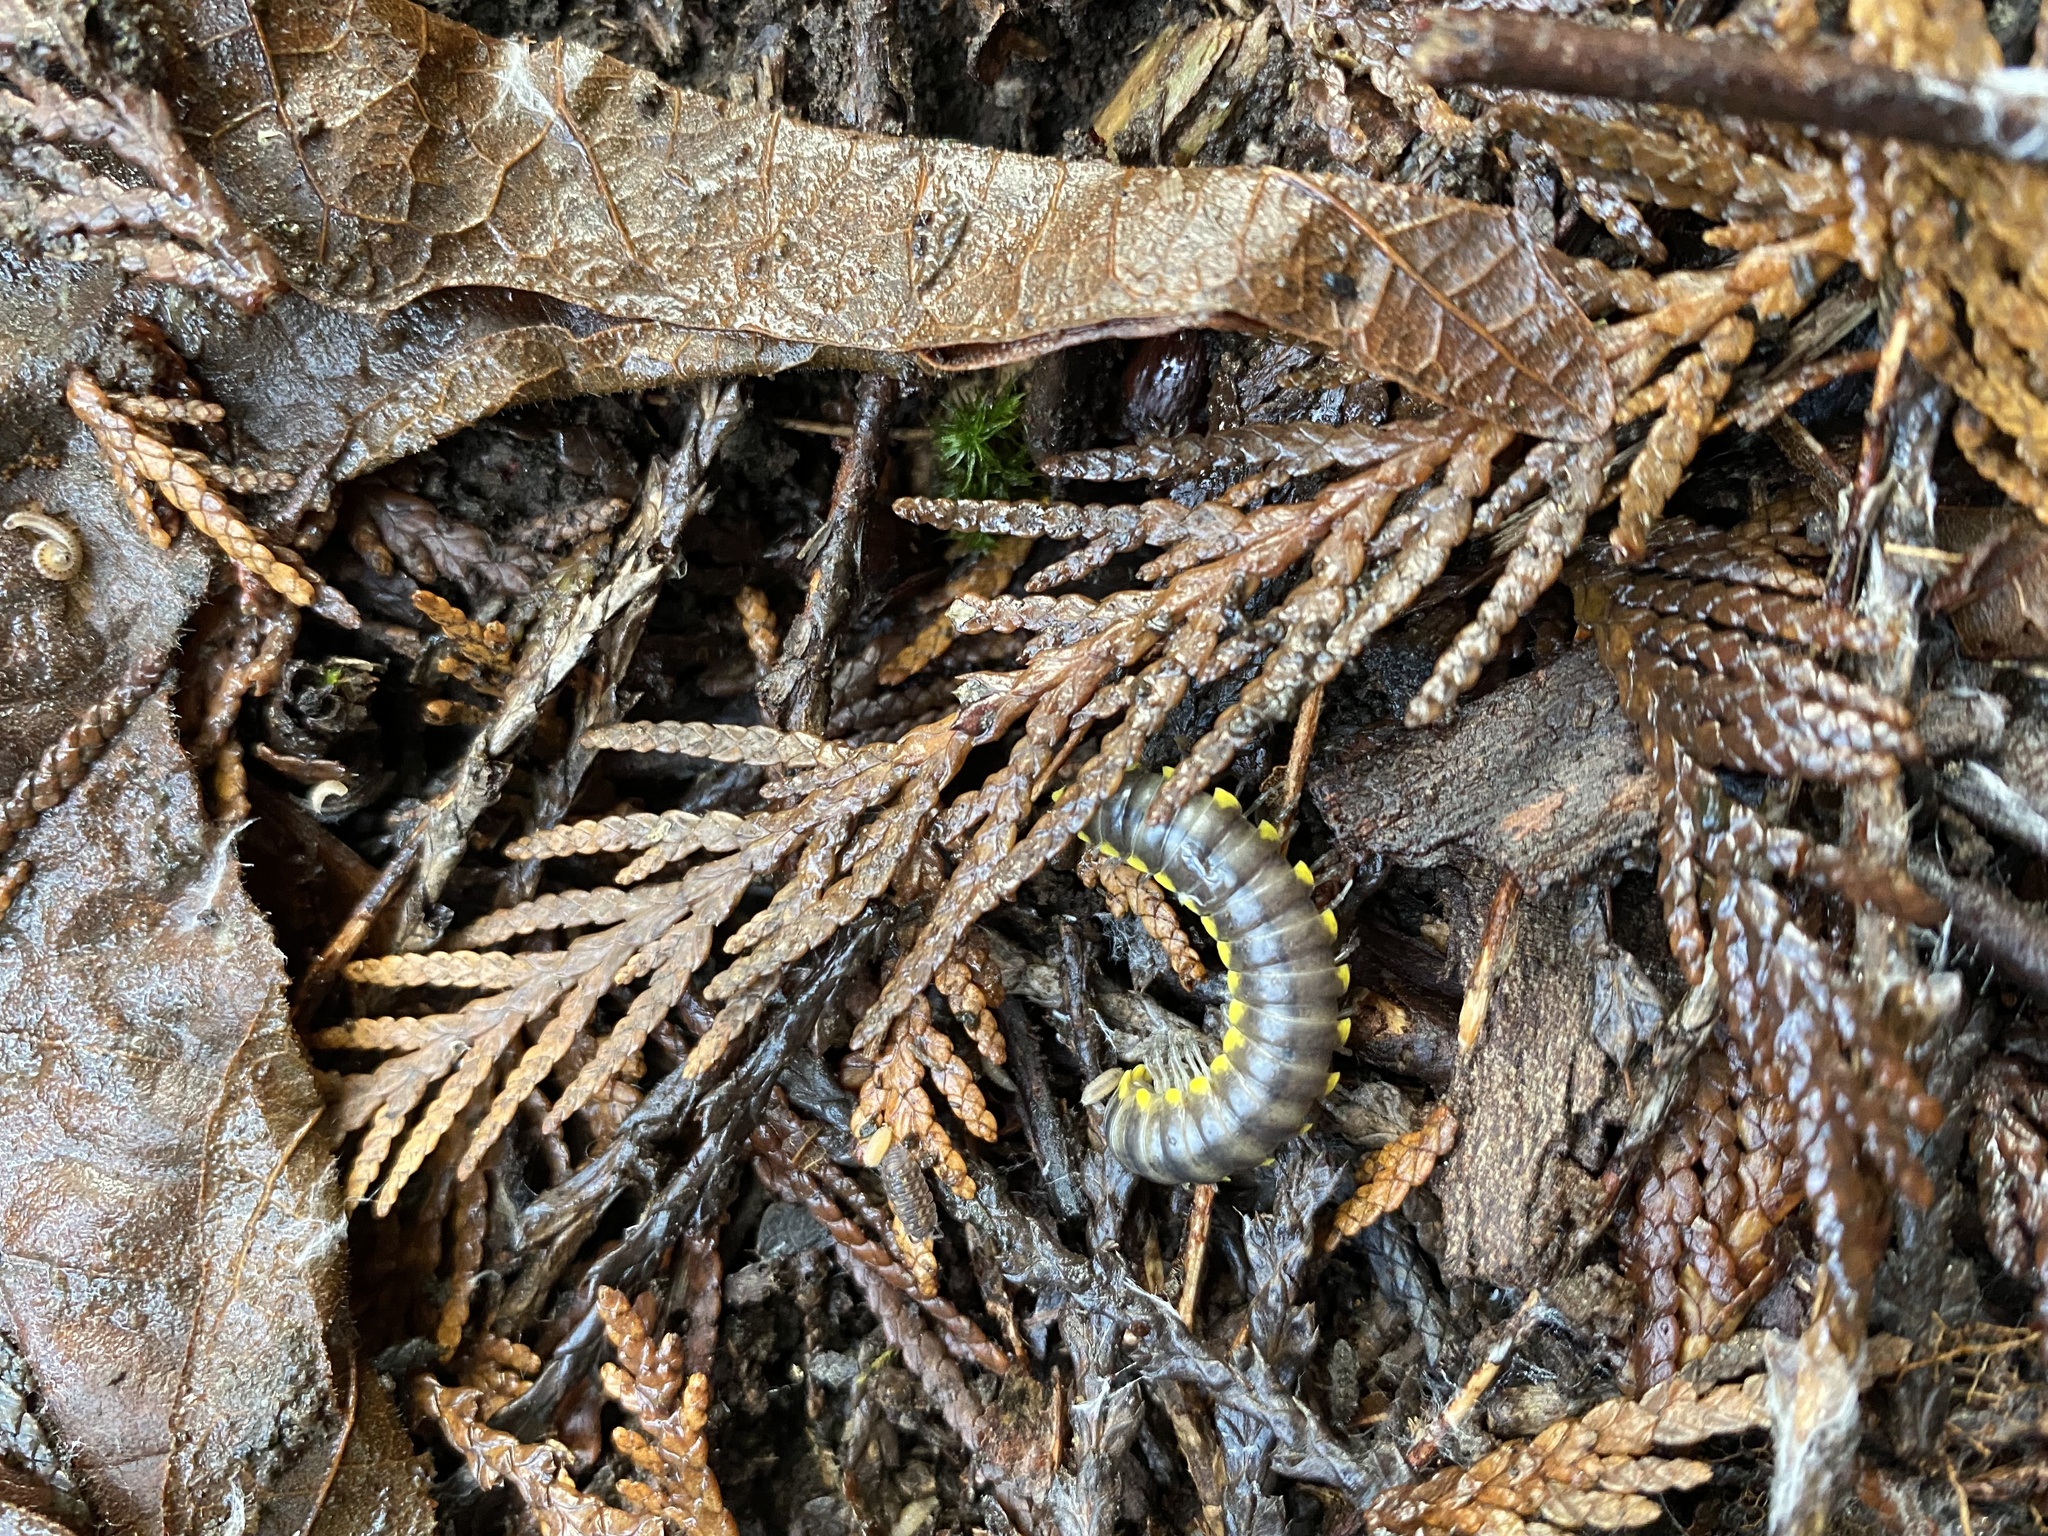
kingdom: Animalia
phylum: Arthropoda
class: Diplopoda
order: Polydesmida
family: Xystodesmidae
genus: Harpaphe
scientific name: Harpaphe haydeniana
